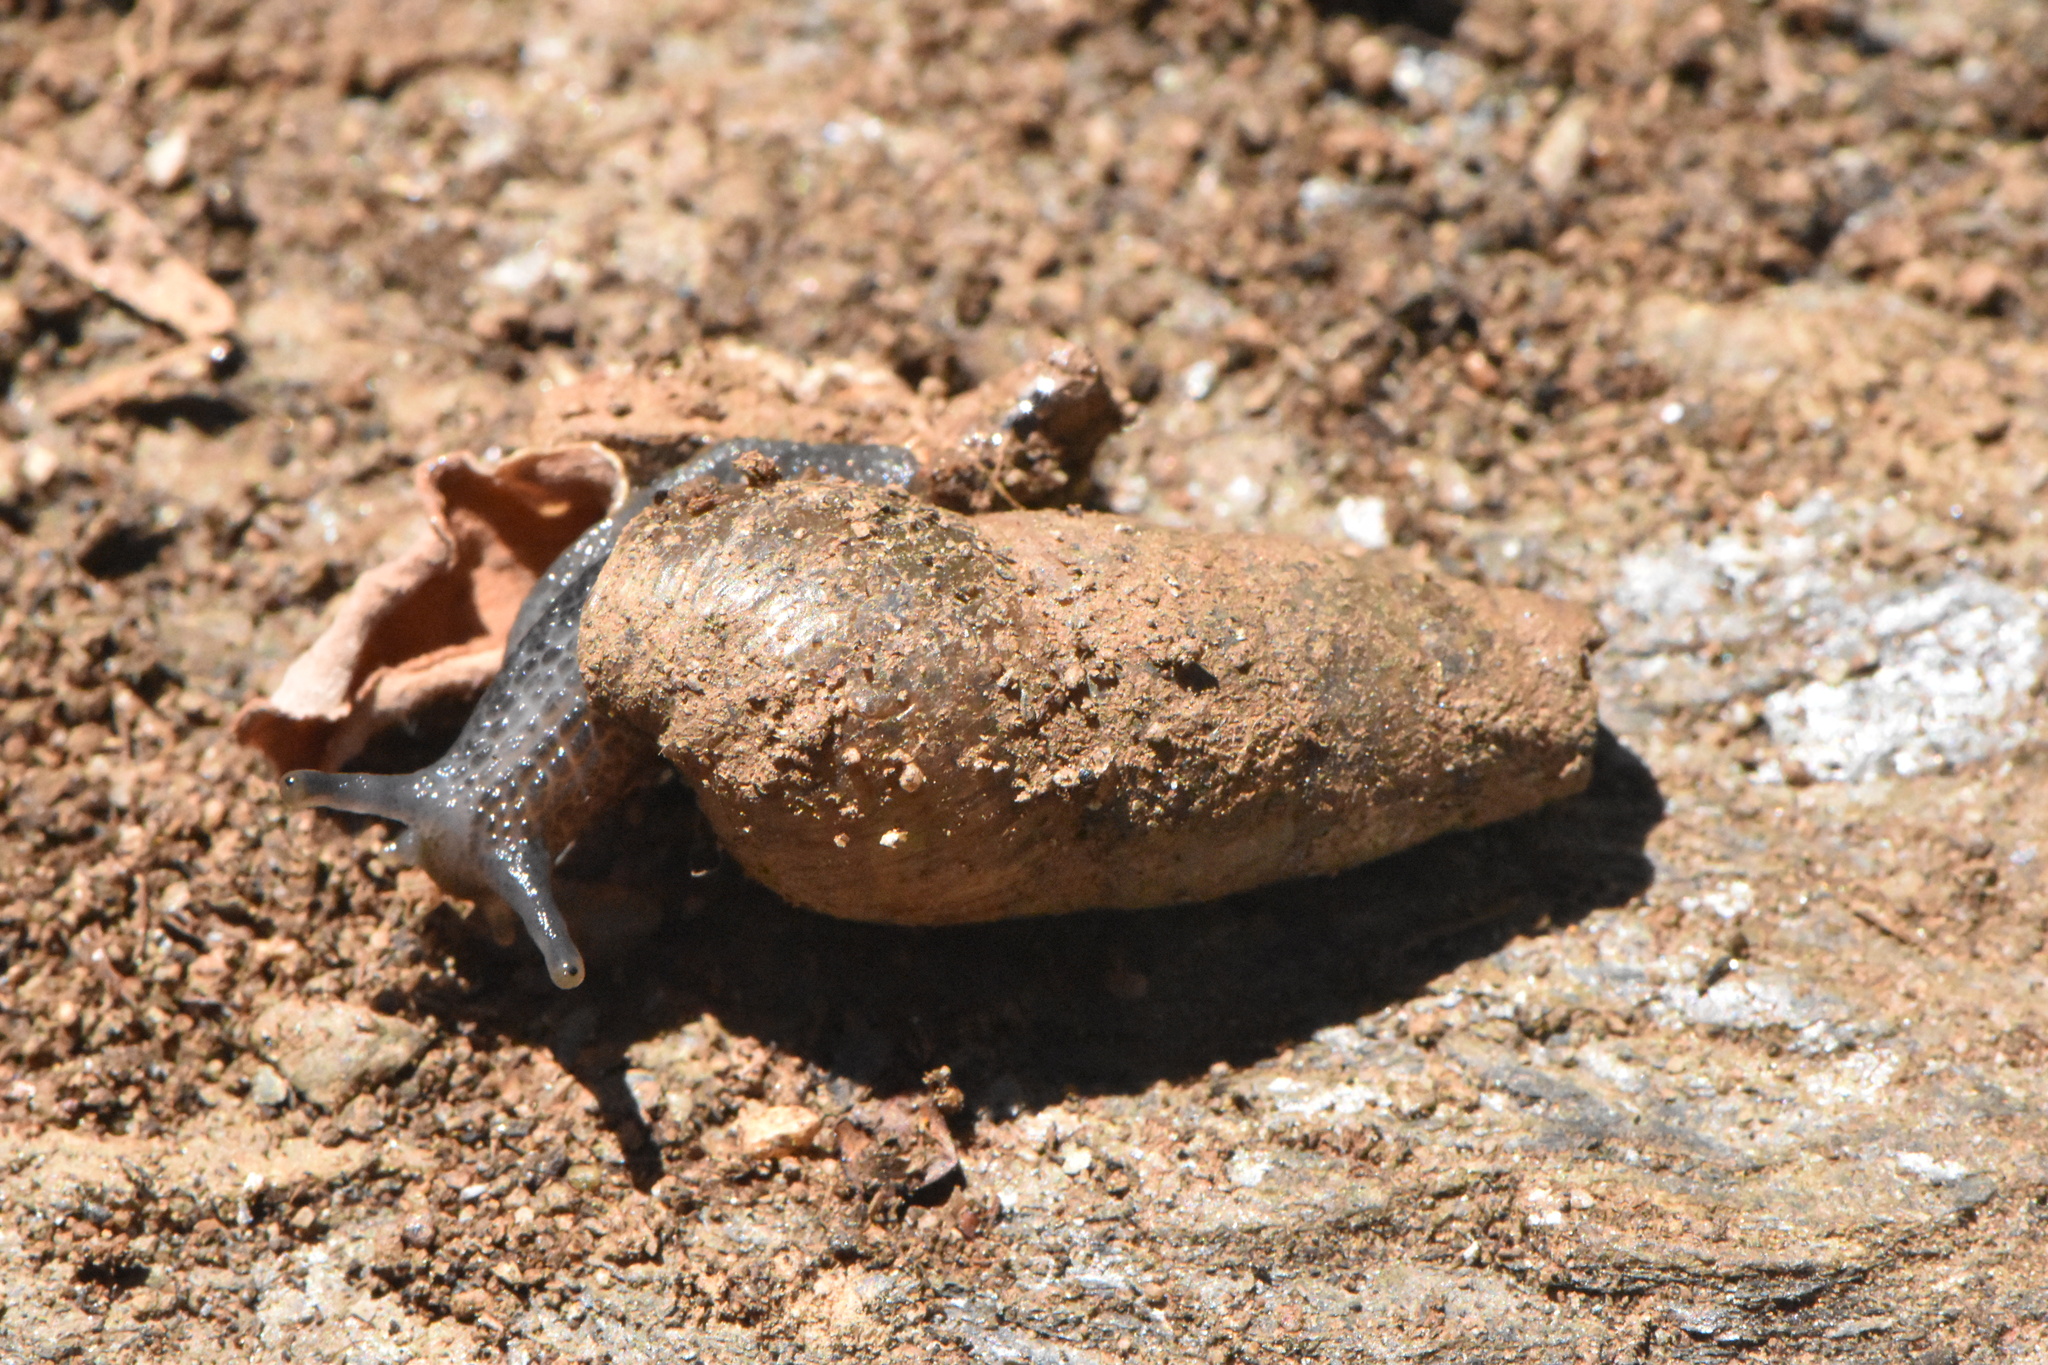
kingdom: Animalia
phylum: Mollusca
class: Gastropoda
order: Stylommatophora
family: Achatinidae
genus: Rumina
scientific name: Rumina decollata
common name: Decollate snail
